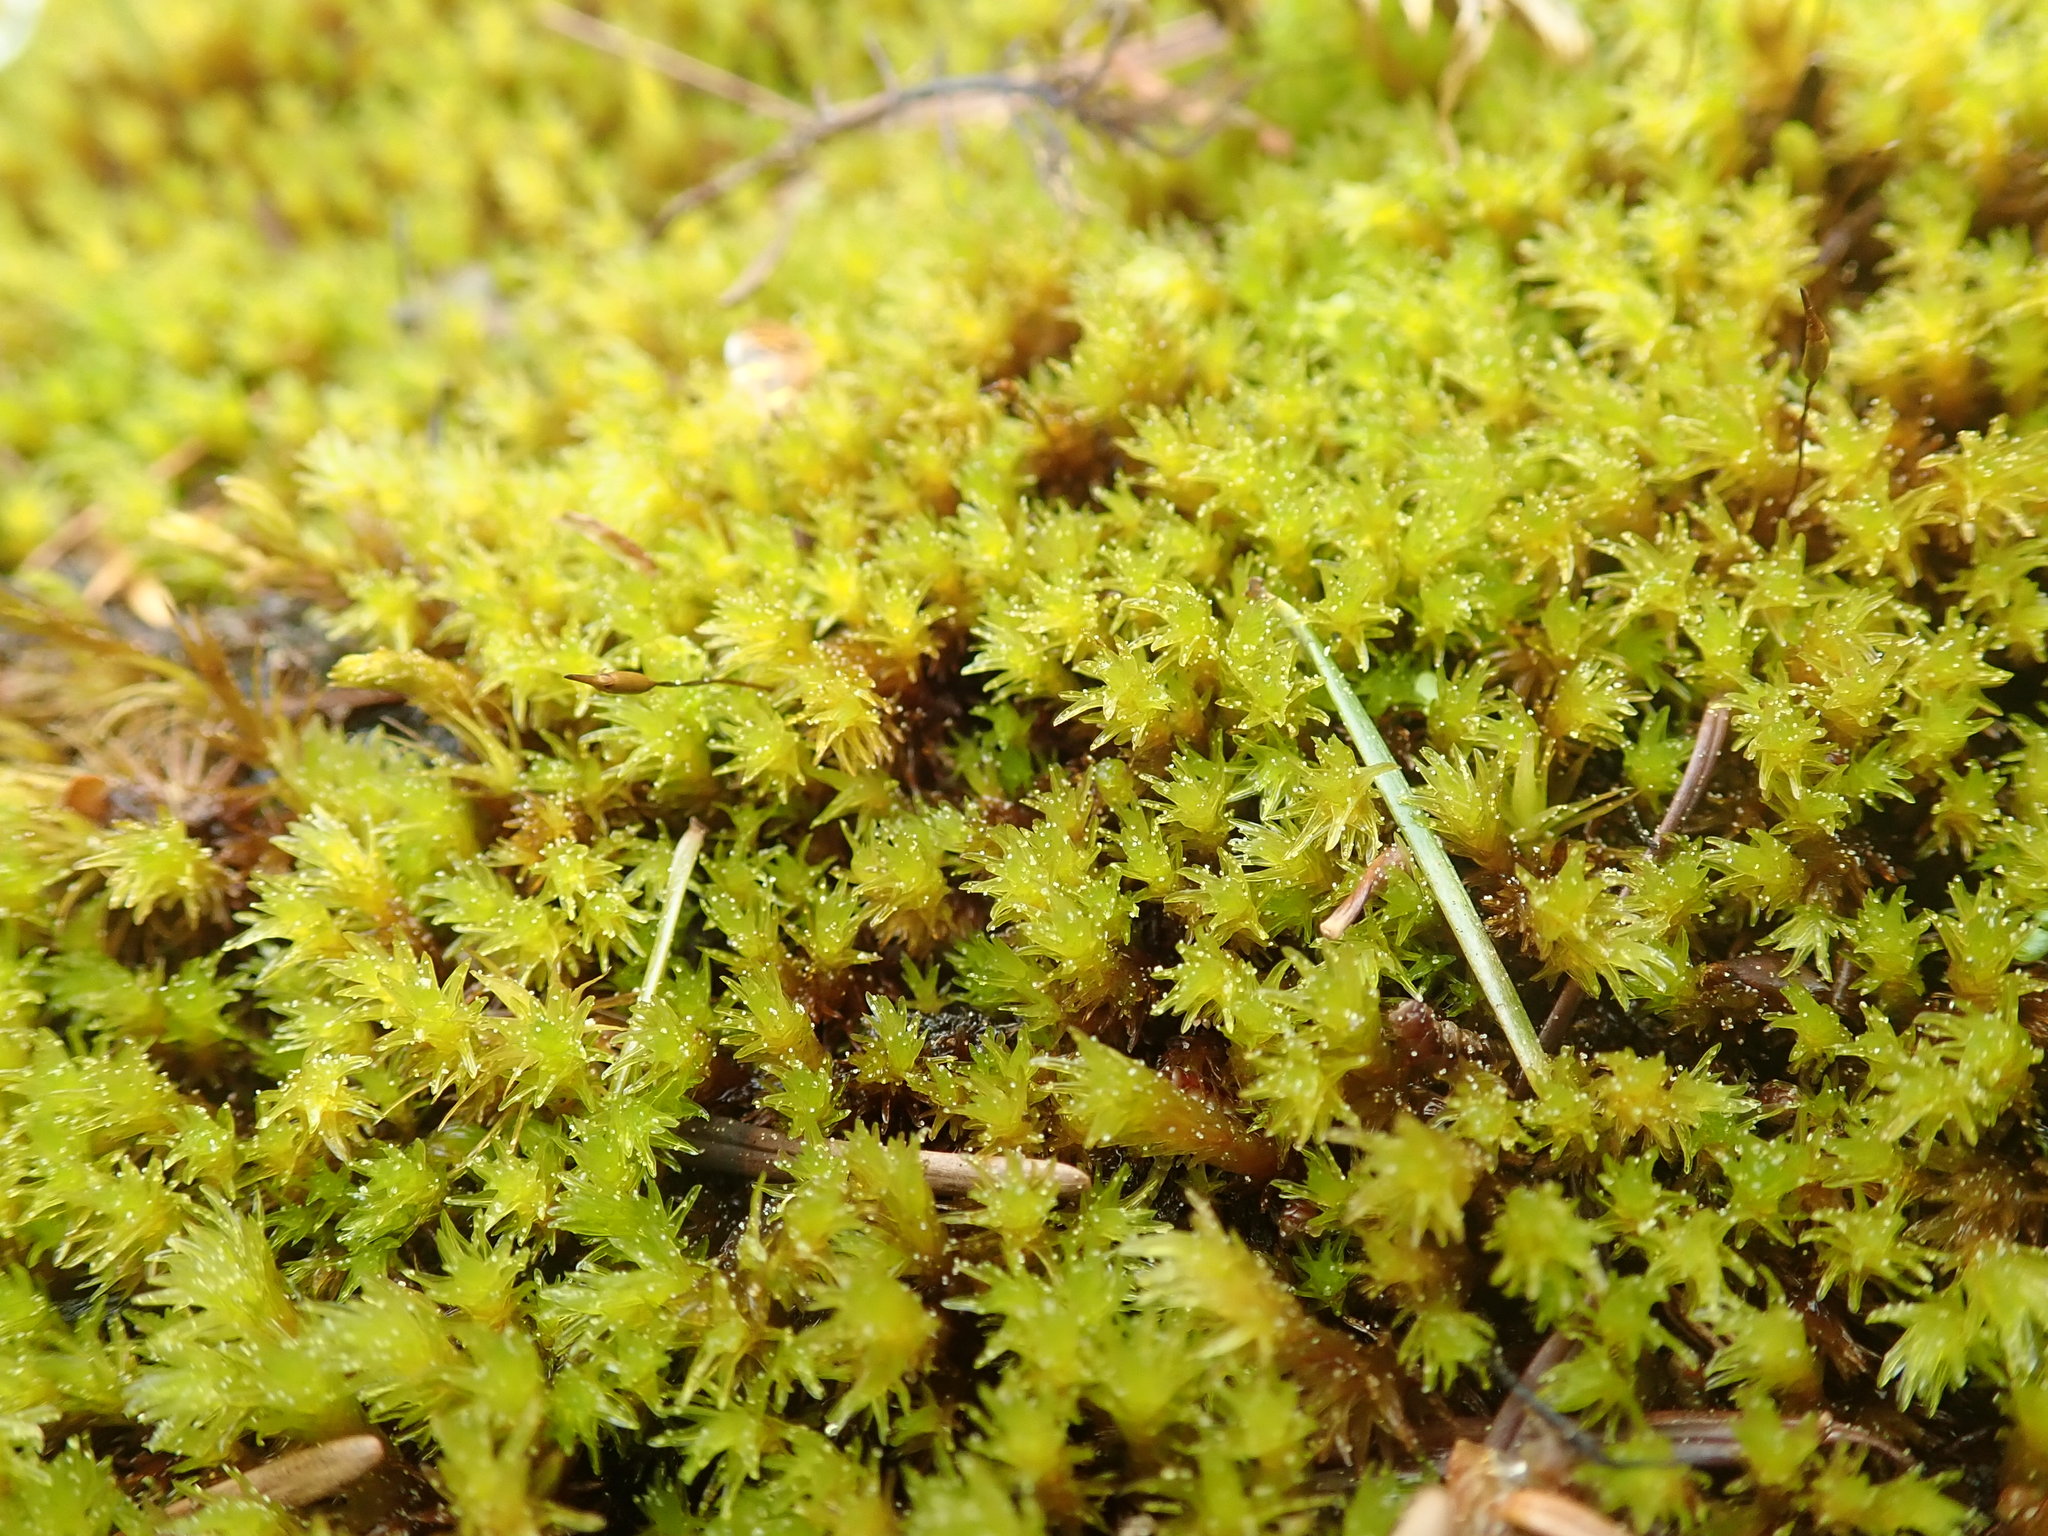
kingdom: Plantae
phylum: Bryophyta
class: Bryopsida
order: Grimmiales
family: Grimmiaceae
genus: Codriophorus
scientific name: Codriophorus ryszardii
